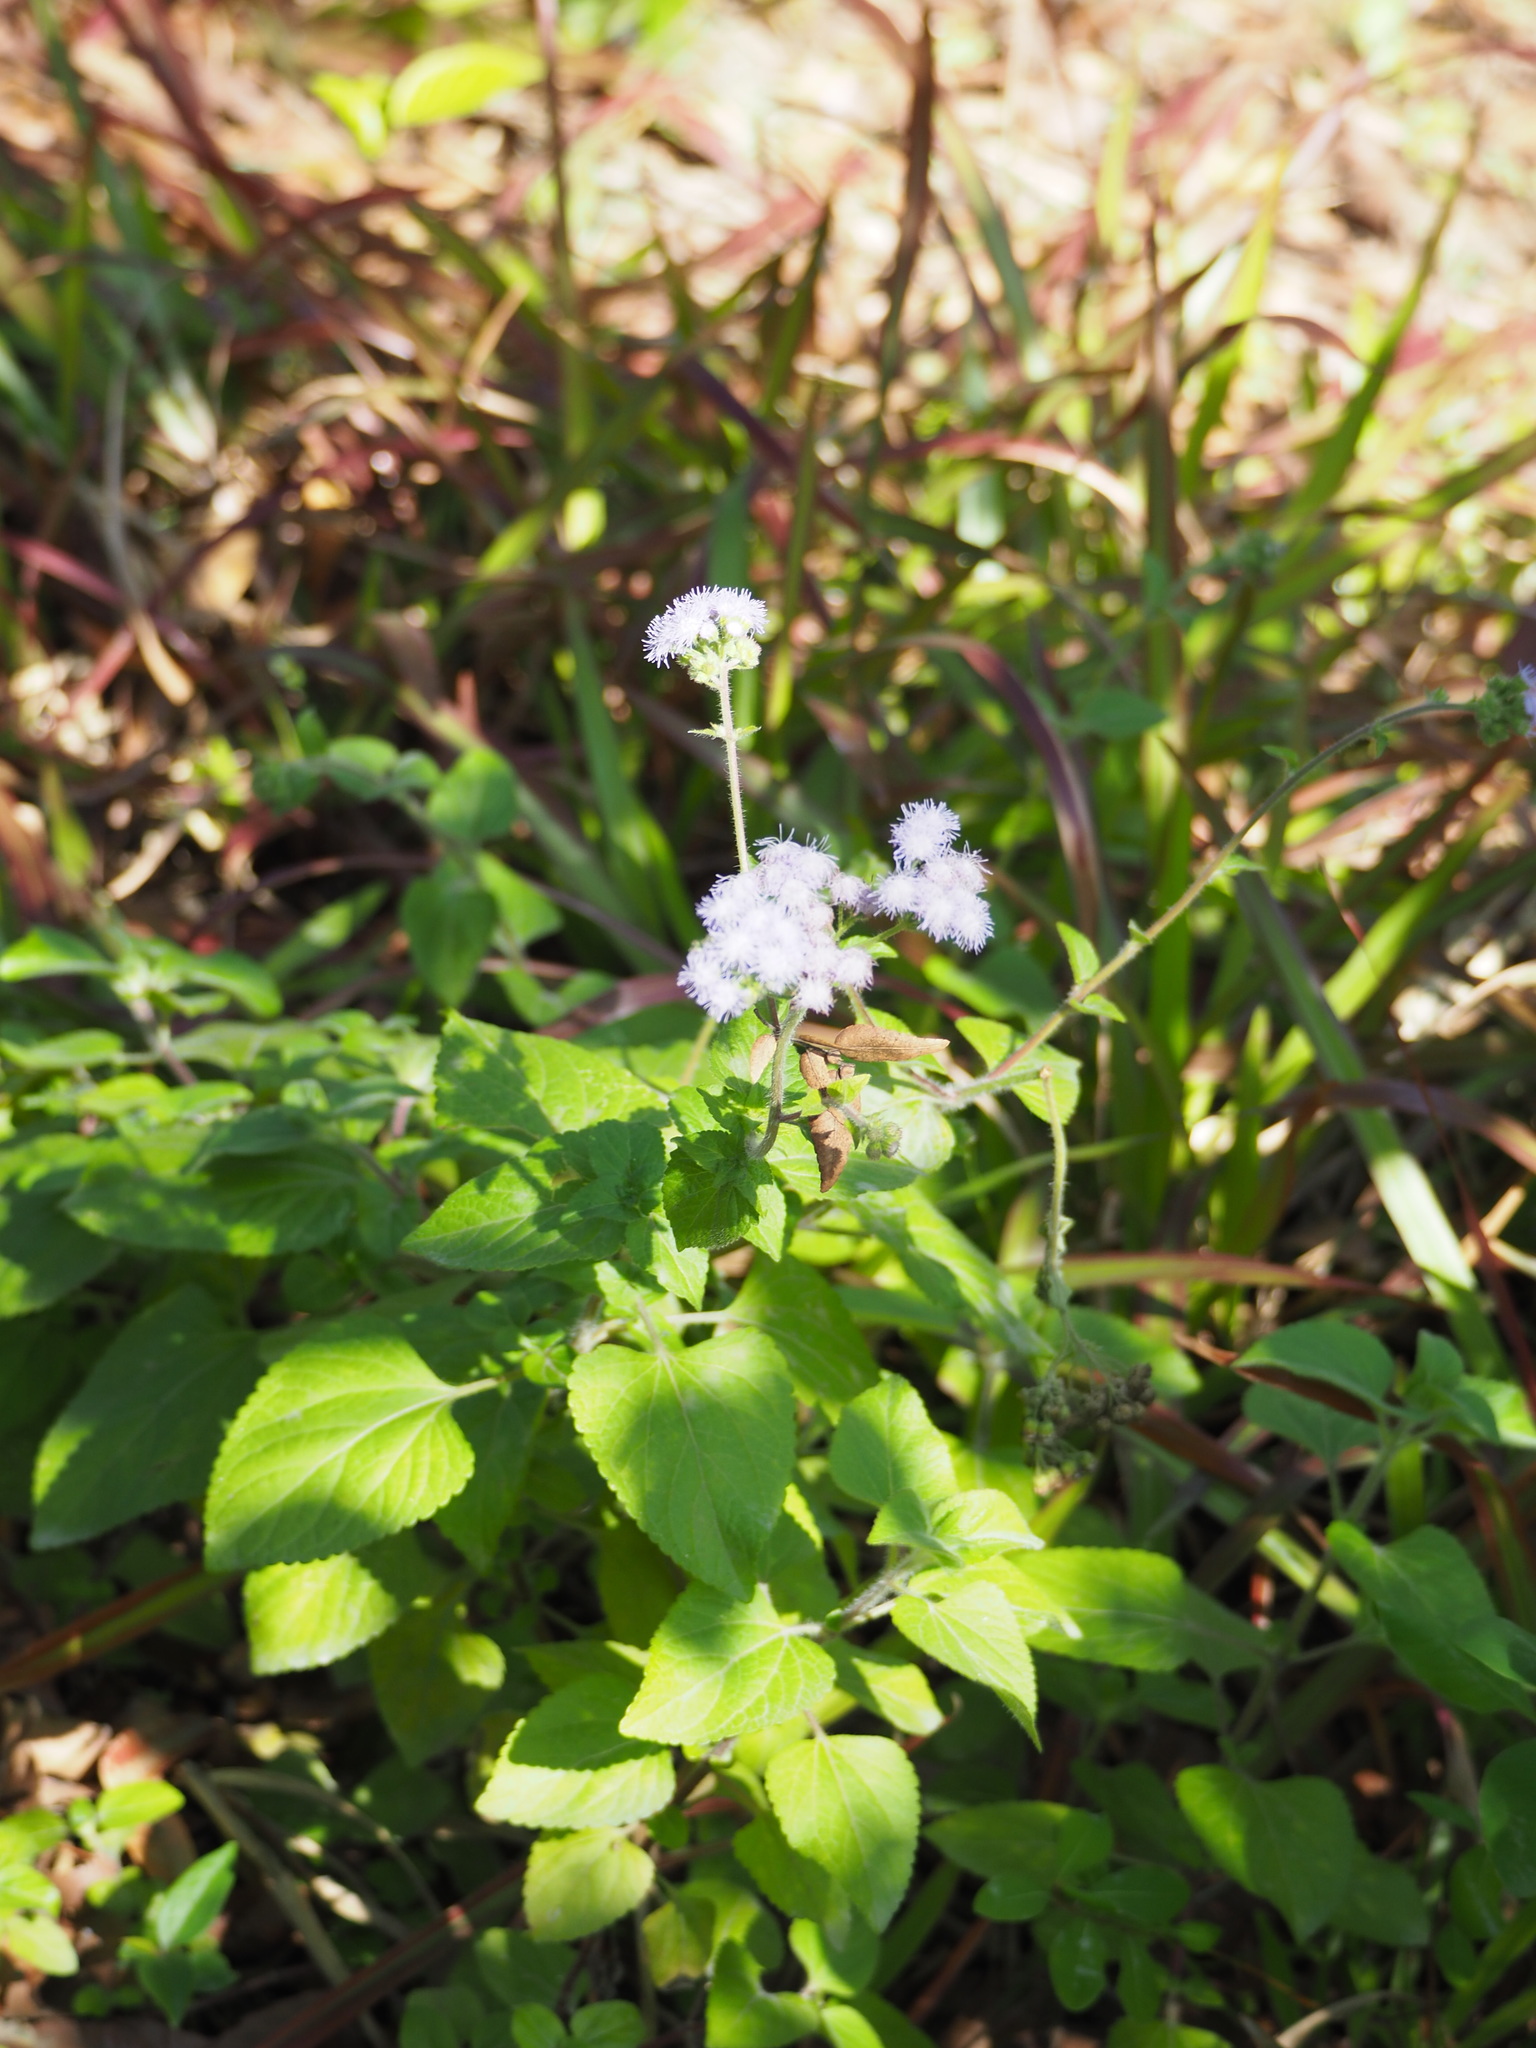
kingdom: Plantae
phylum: Tracheophyta
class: Magnoliopsida
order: Asterales
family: Asteraceae
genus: Ageratum
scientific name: Ageratum houstonianum
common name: Bluemink
